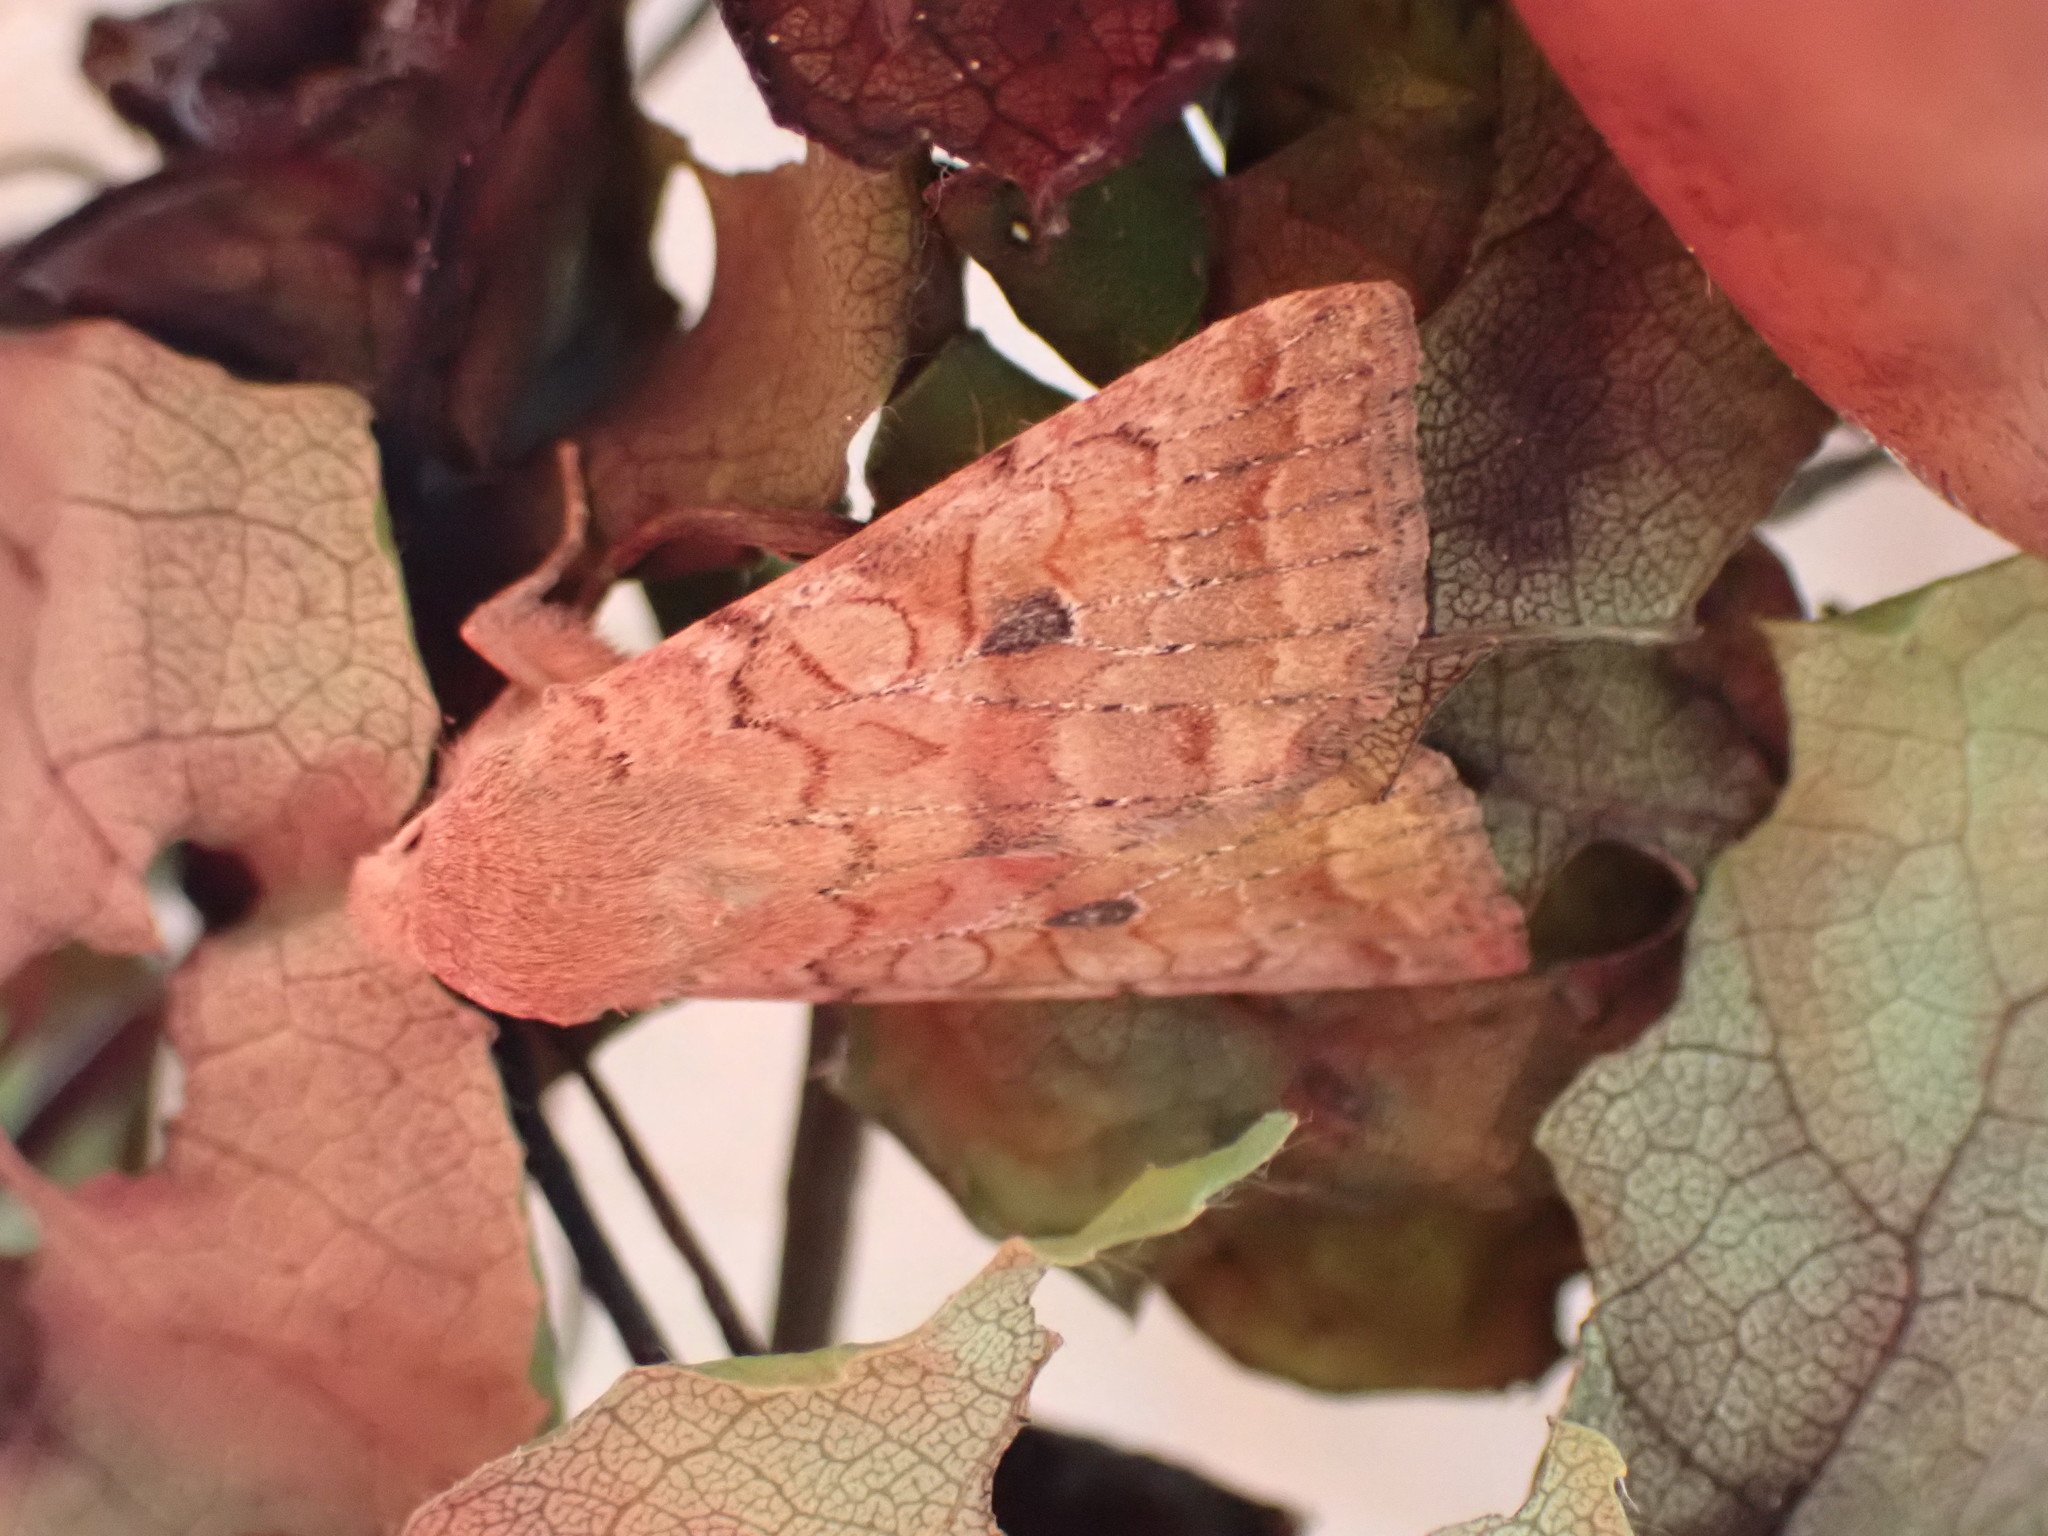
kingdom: Animalia
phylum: Arthropoda
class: Insecta
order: Lepidoptera
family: Noctuidae
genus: Agrochola
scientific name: Agrochola verberata
